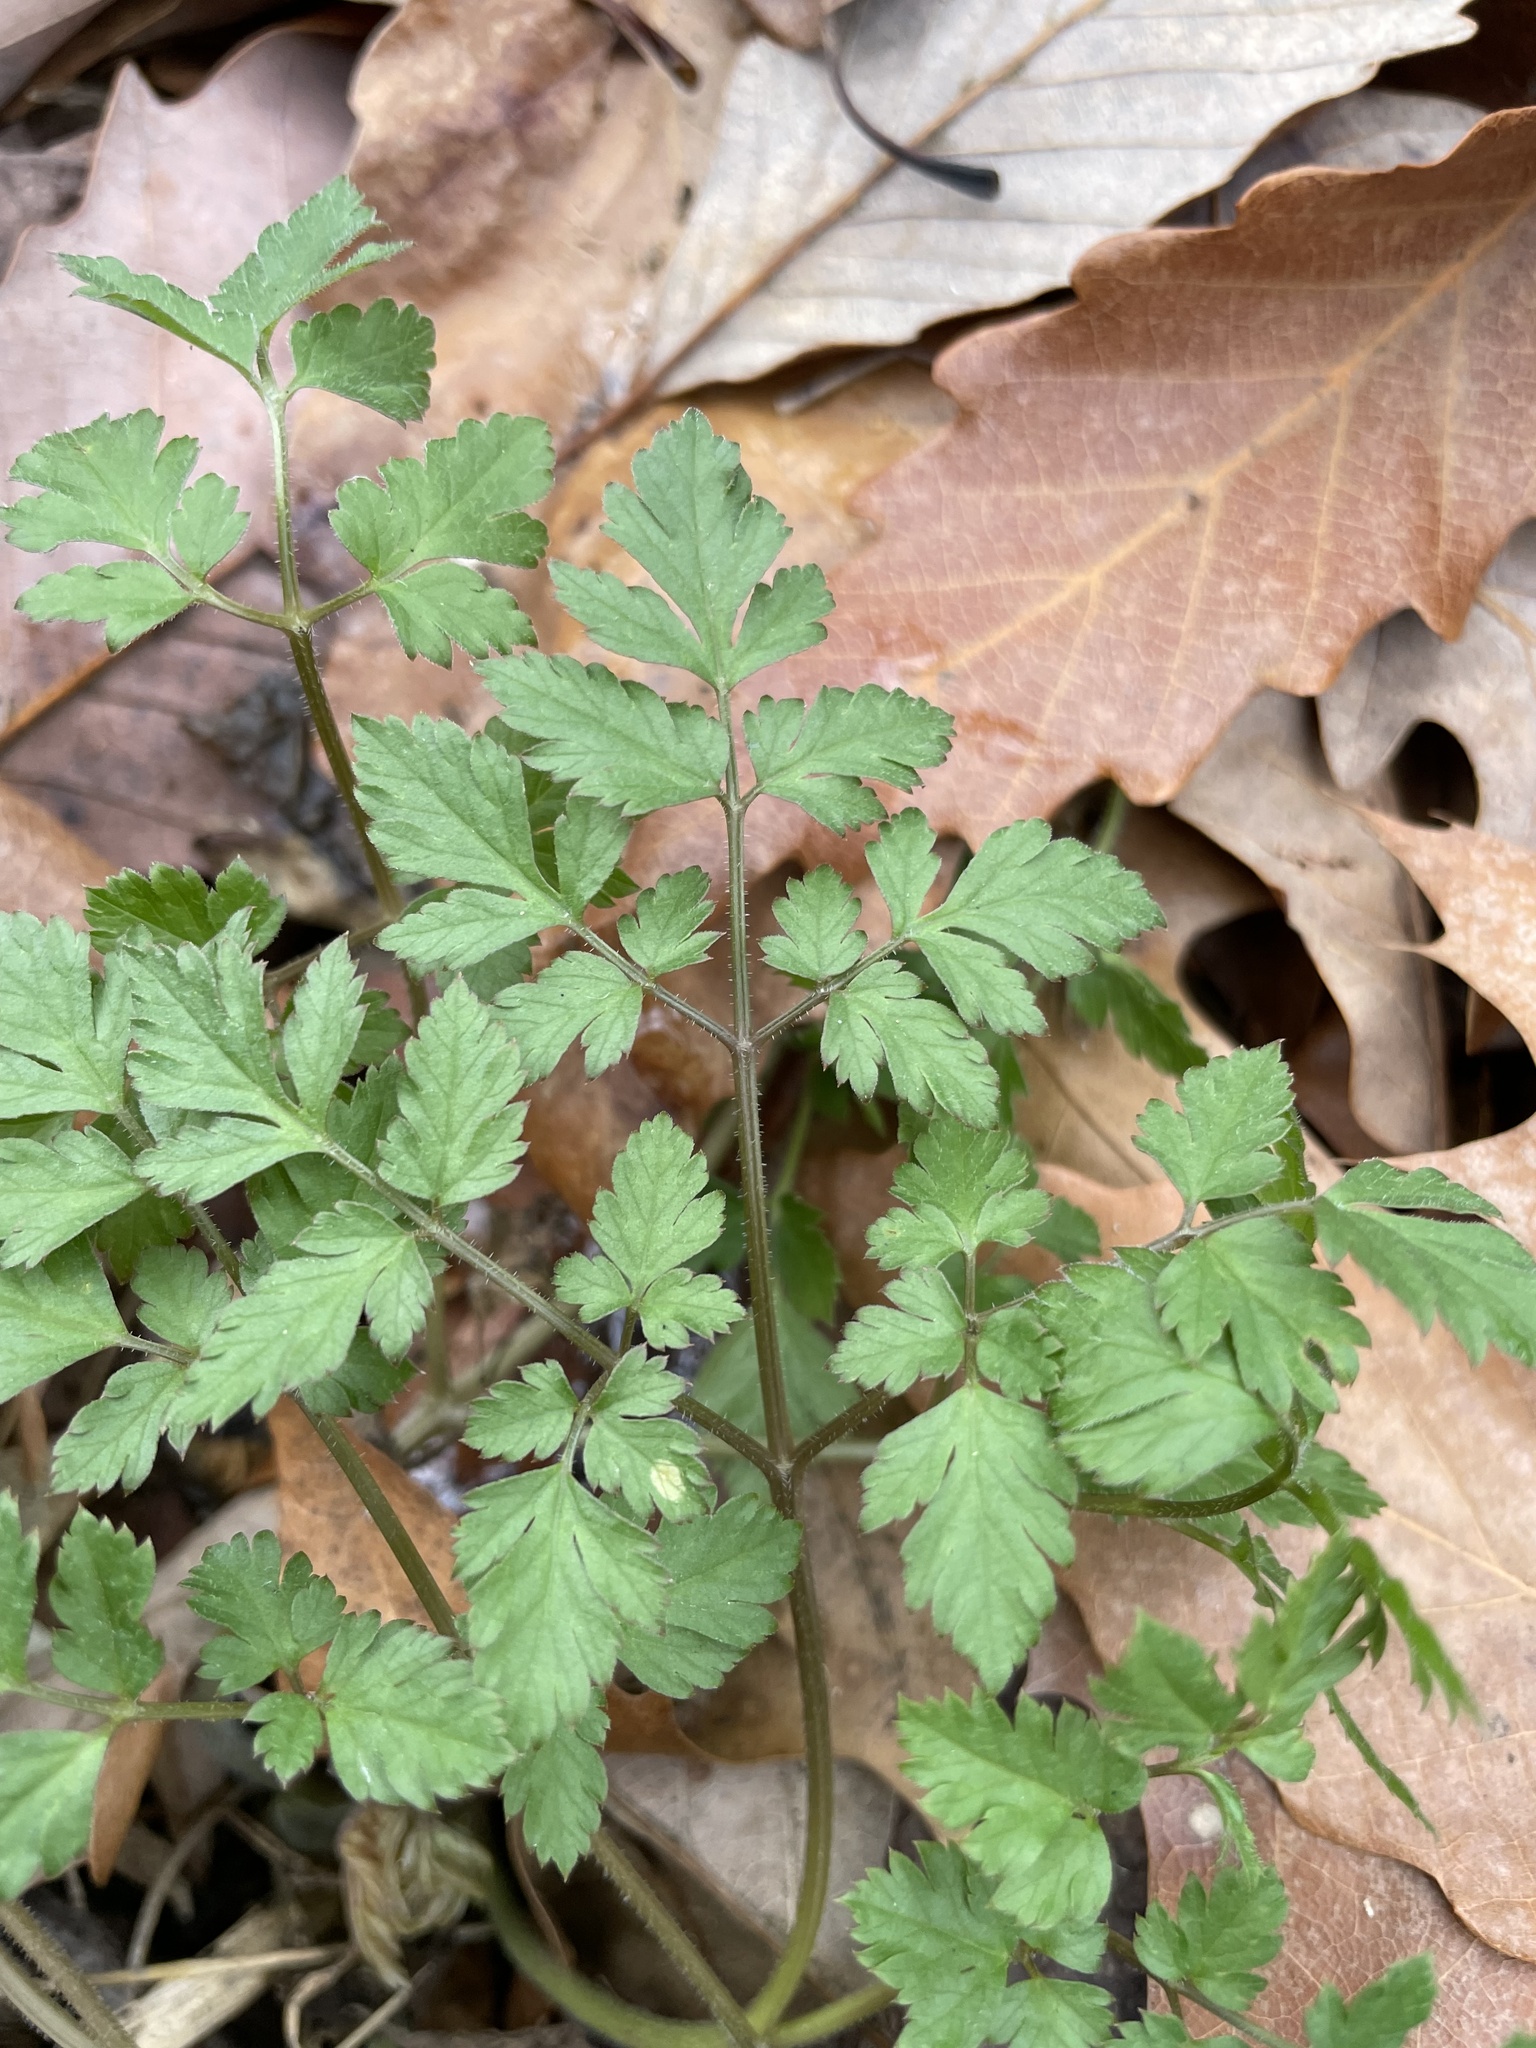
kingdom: Plantae
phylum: Tracheophyta
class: Magnoliopsida
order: Apiales
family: Apiaceae
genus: Osmorhiza
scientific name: Osmorhiza claytonii
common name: Hairy sweet cicely
